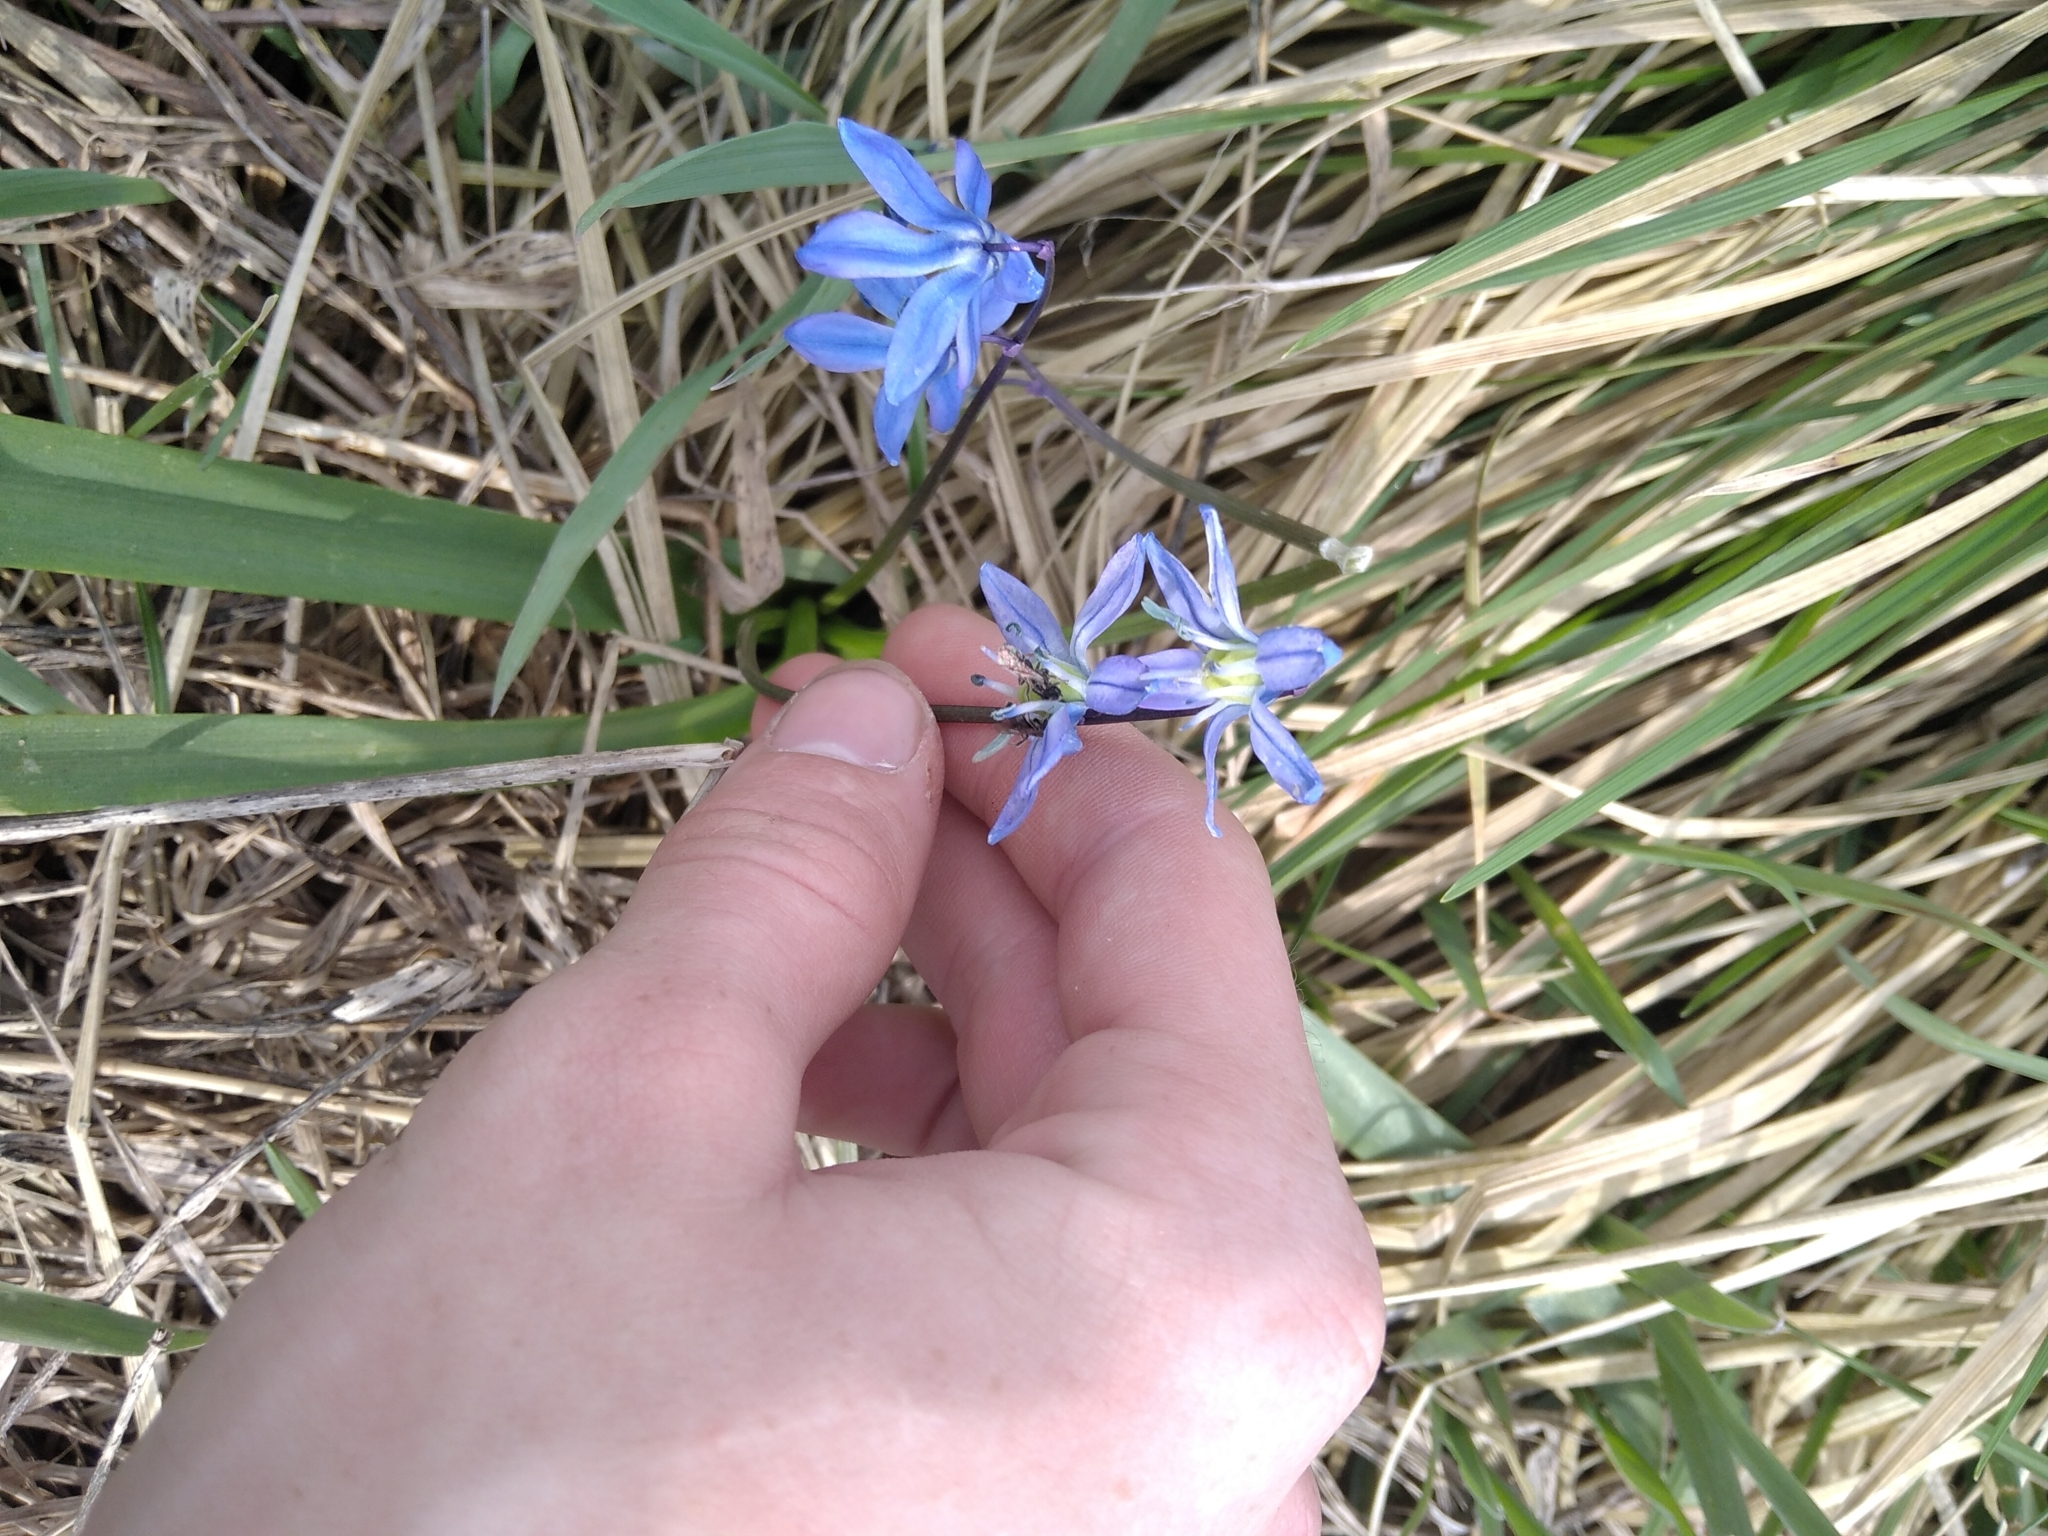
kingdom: Plantae
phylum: Tracheophyta
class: Liliopsida
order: Asparagales
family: Asparagaceae
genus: Scilla
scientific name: Scilla siberica
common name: Siberian squill
